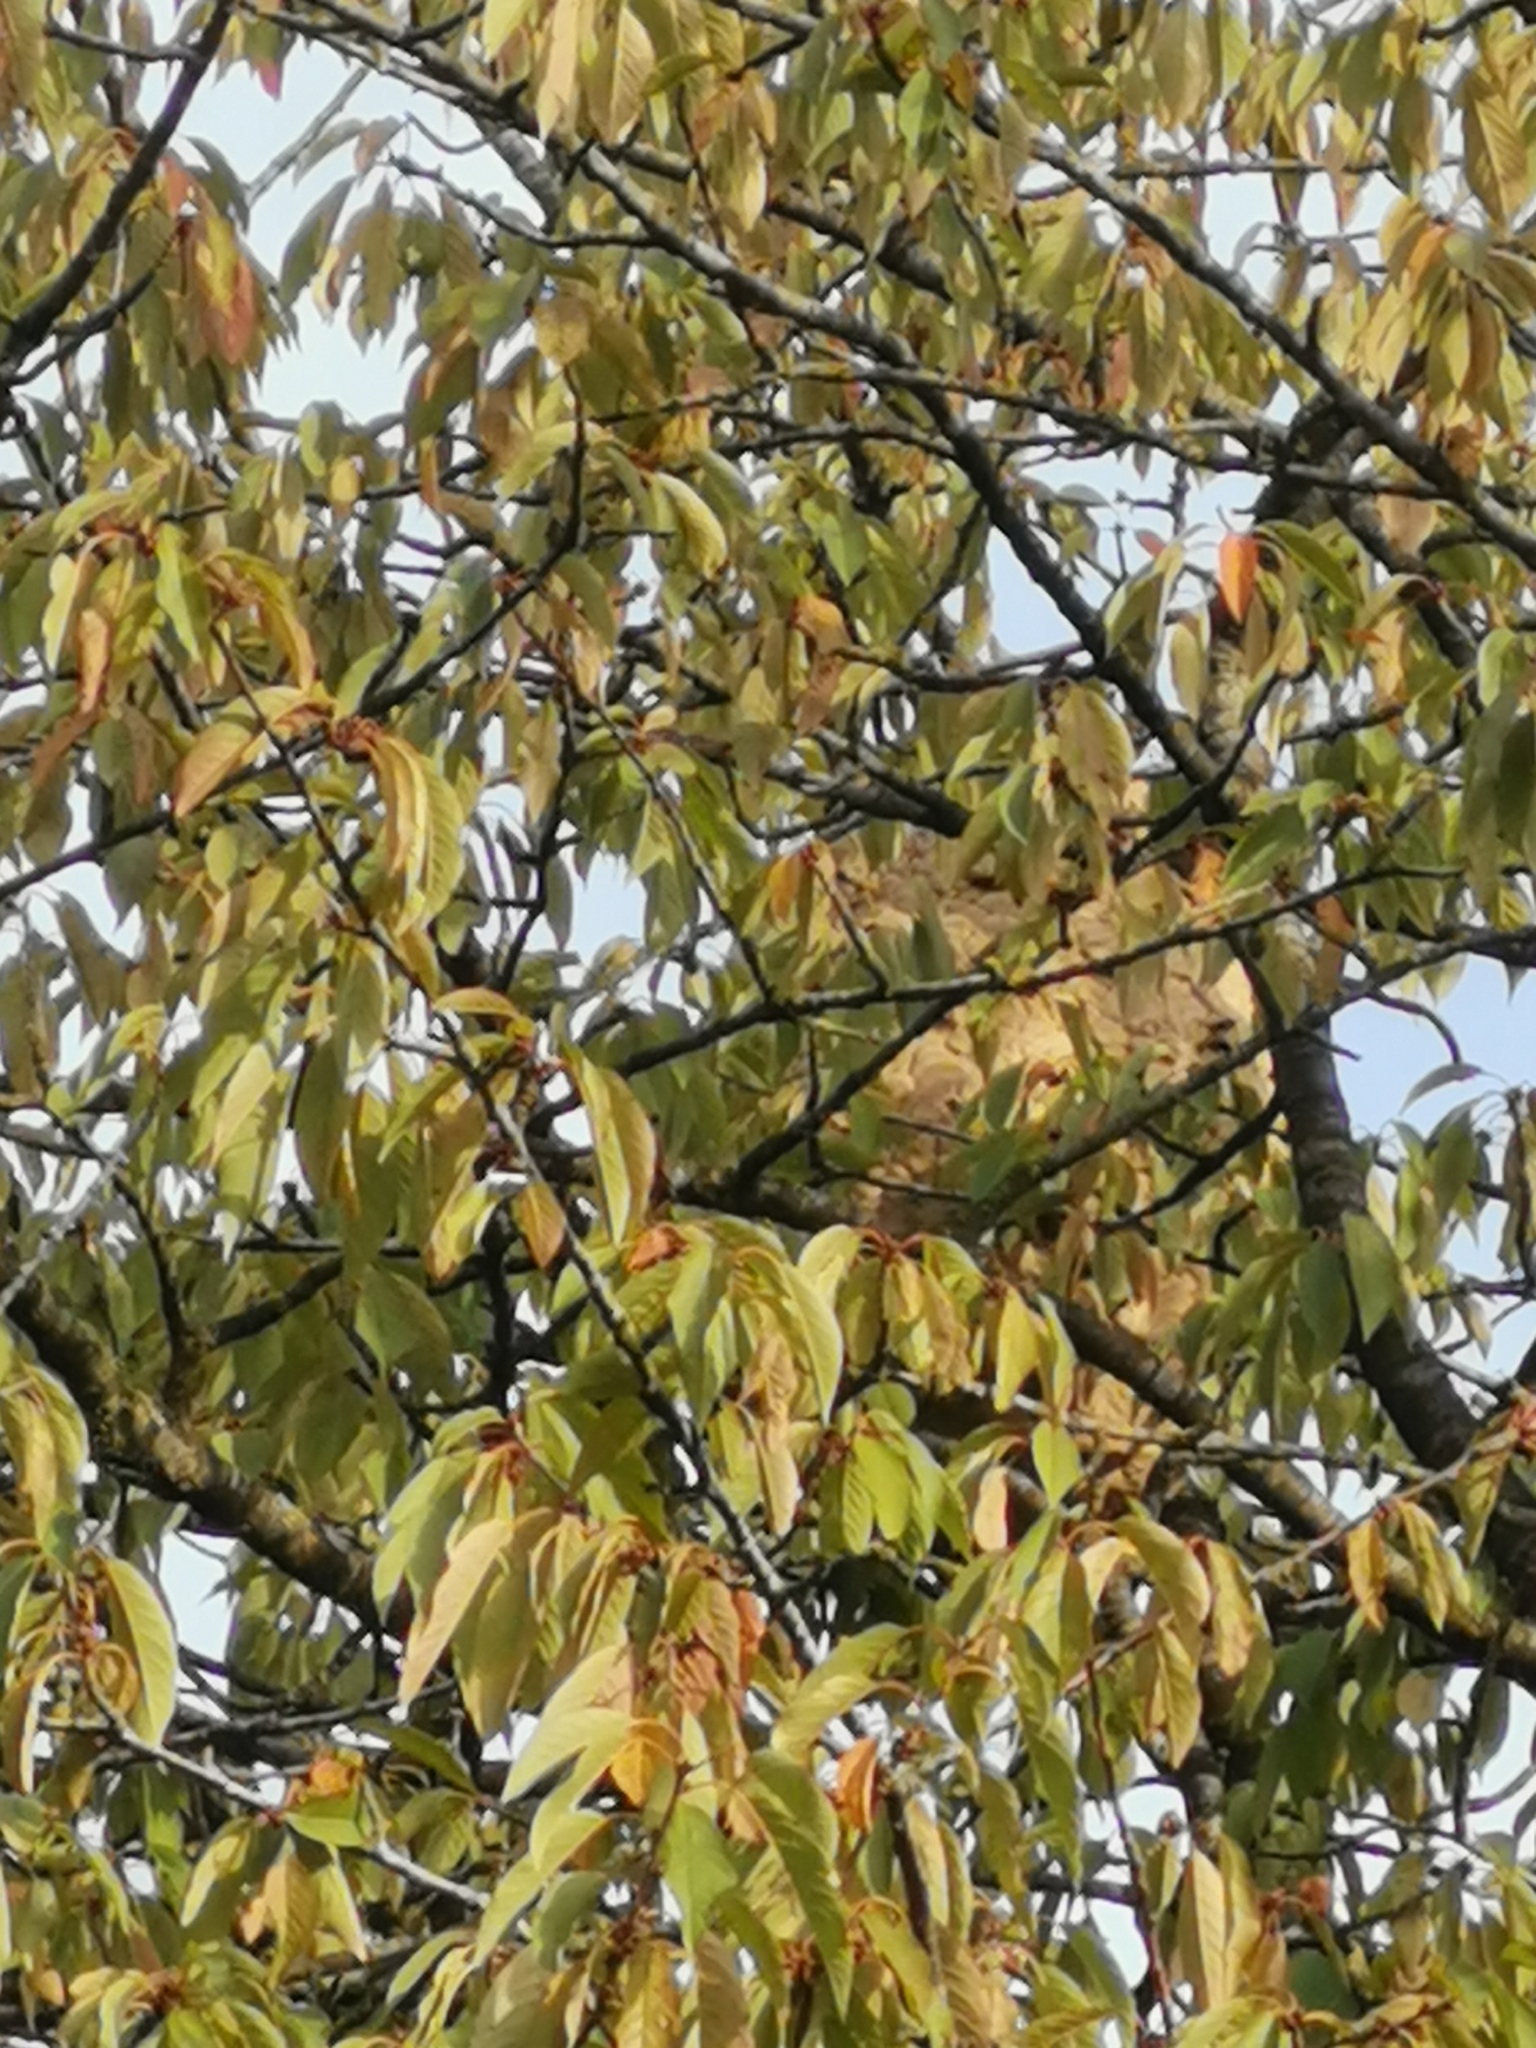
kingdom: Animalia
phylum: Arthropoda
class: Insecta
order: Hymenoptera
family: Vespidae
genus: Vespa
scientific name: Vespa velutina
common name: Asian hornet
